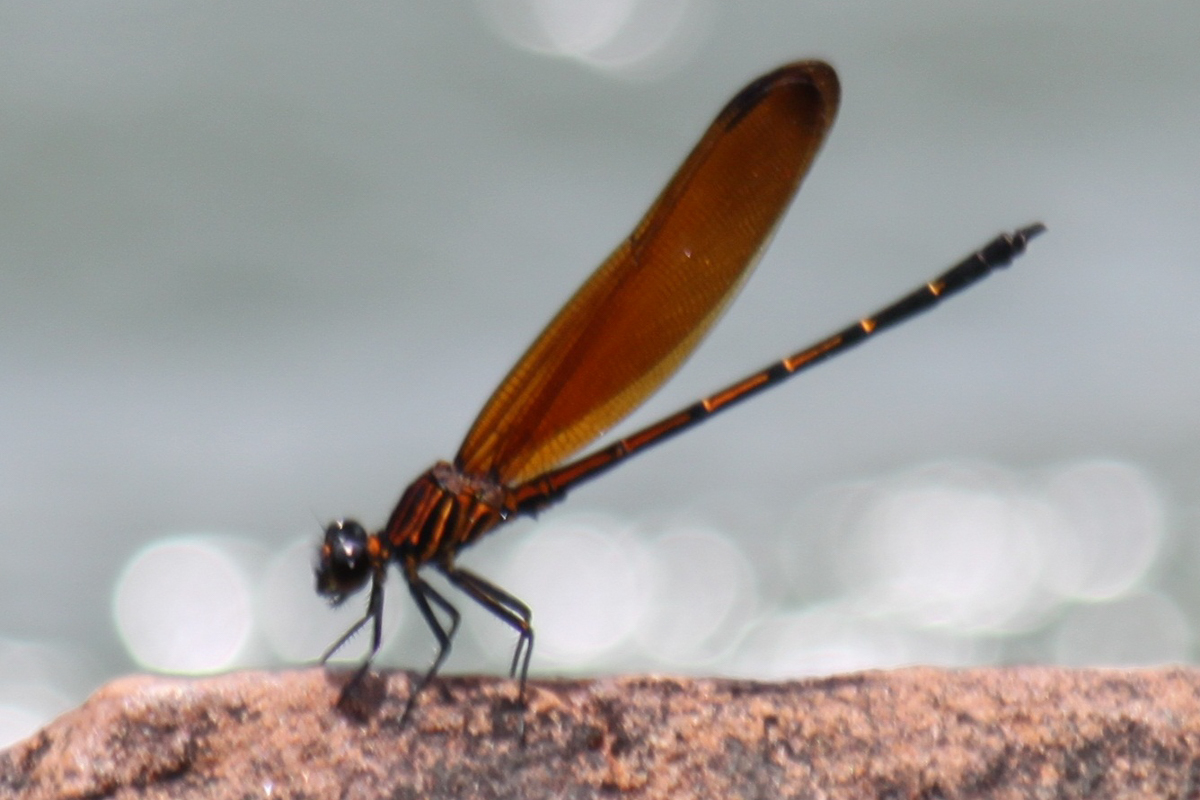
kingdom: Animalia
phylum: Arthropoda
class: Insecta
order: Odonata
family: Euphaeidae
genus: Dysphaea
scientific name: Dysphaea gloriosa
